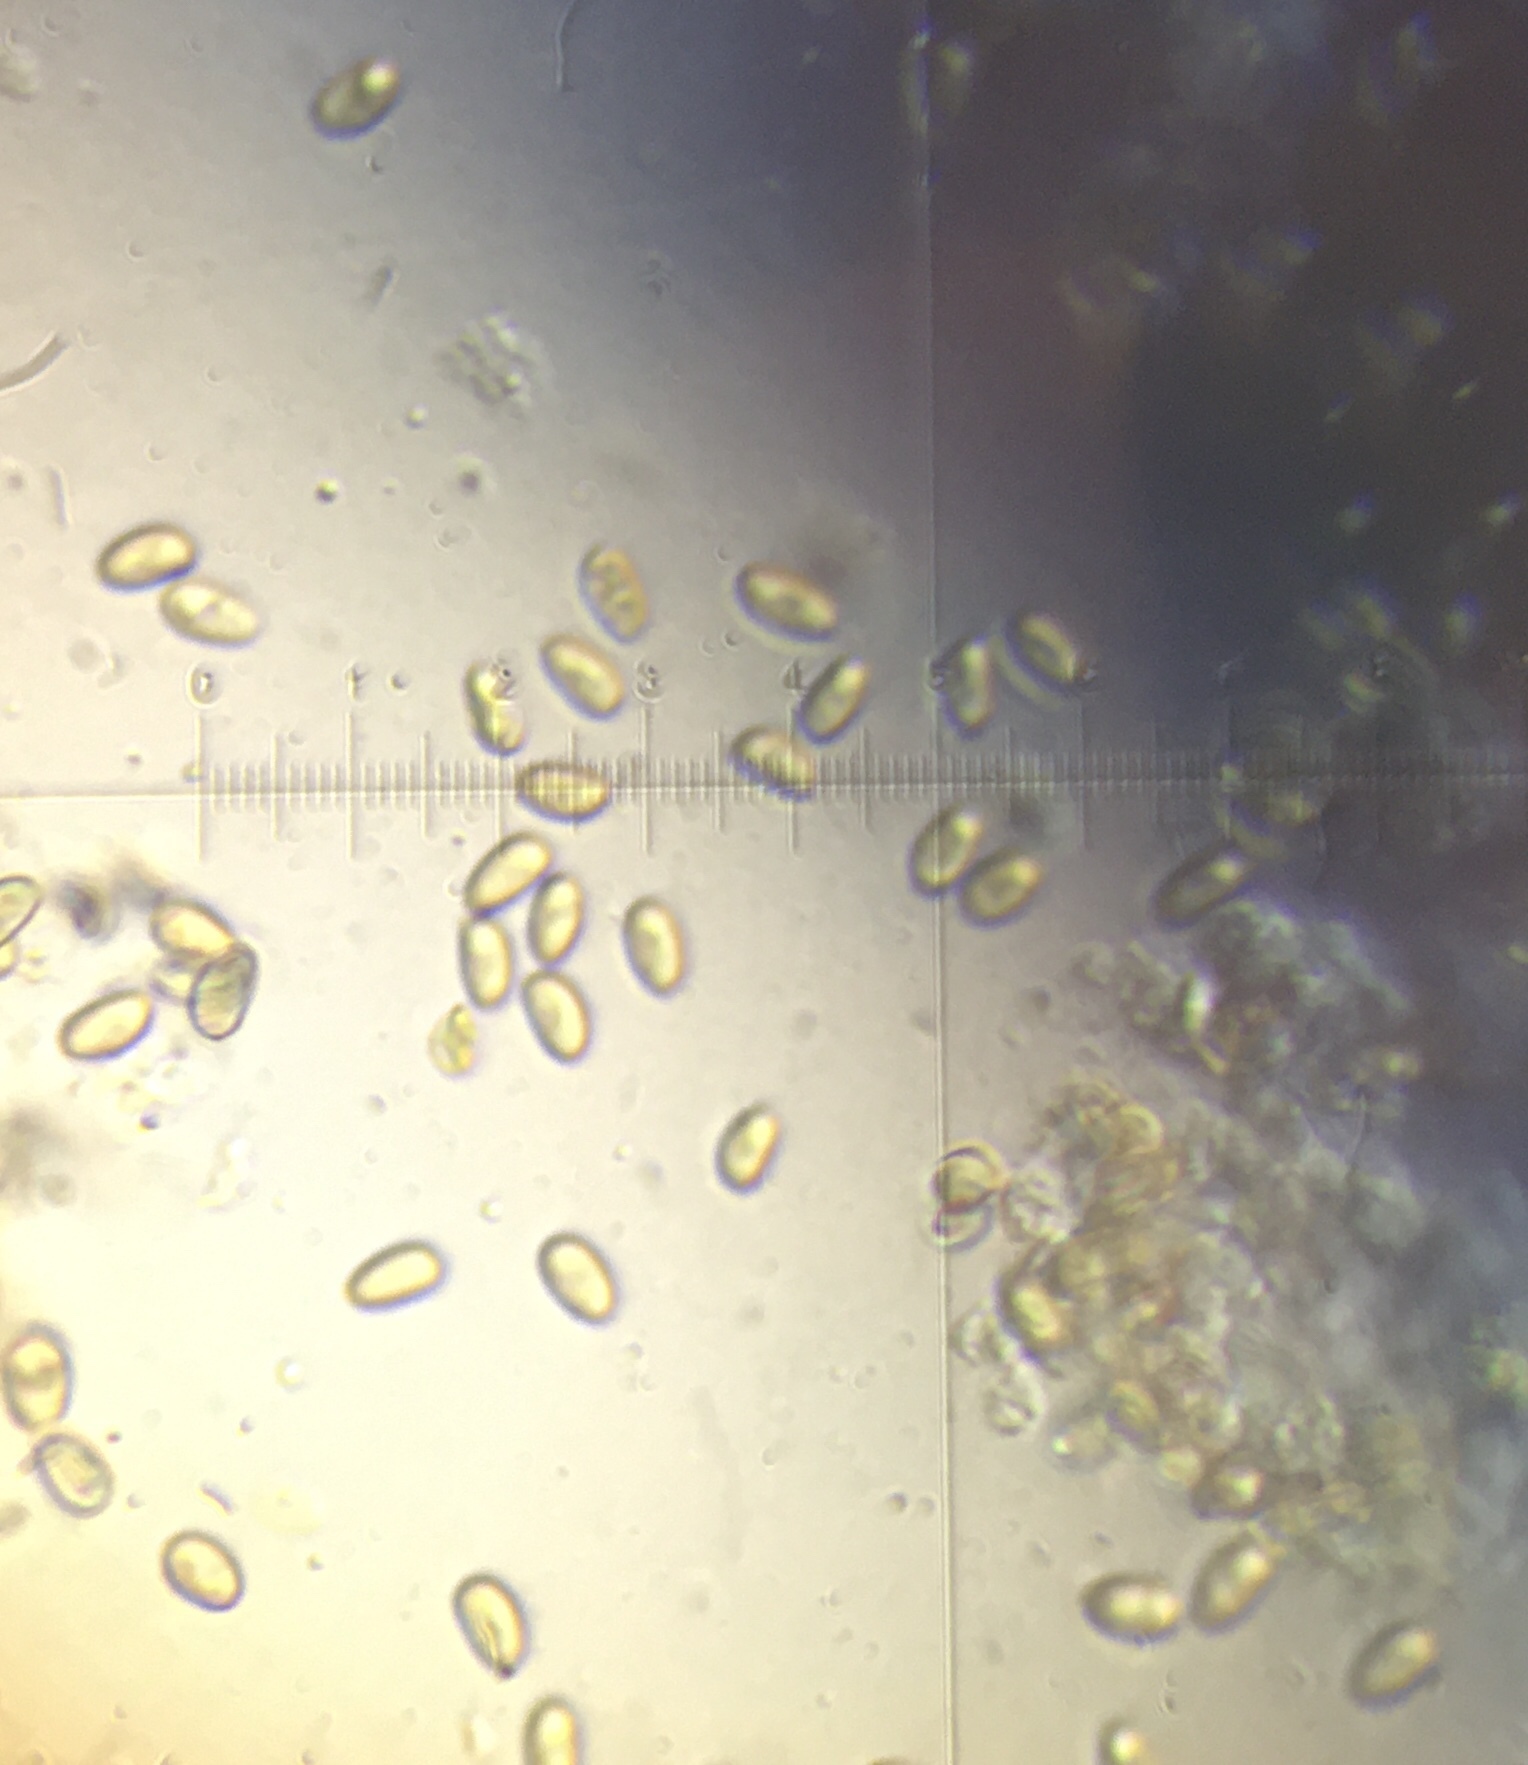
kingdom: Fungi
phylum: Basidiomycota
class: Agaricomycetes
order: Agaricales
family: Strophariaceae
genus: Pholiota
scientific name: Pholiota caespitosa
